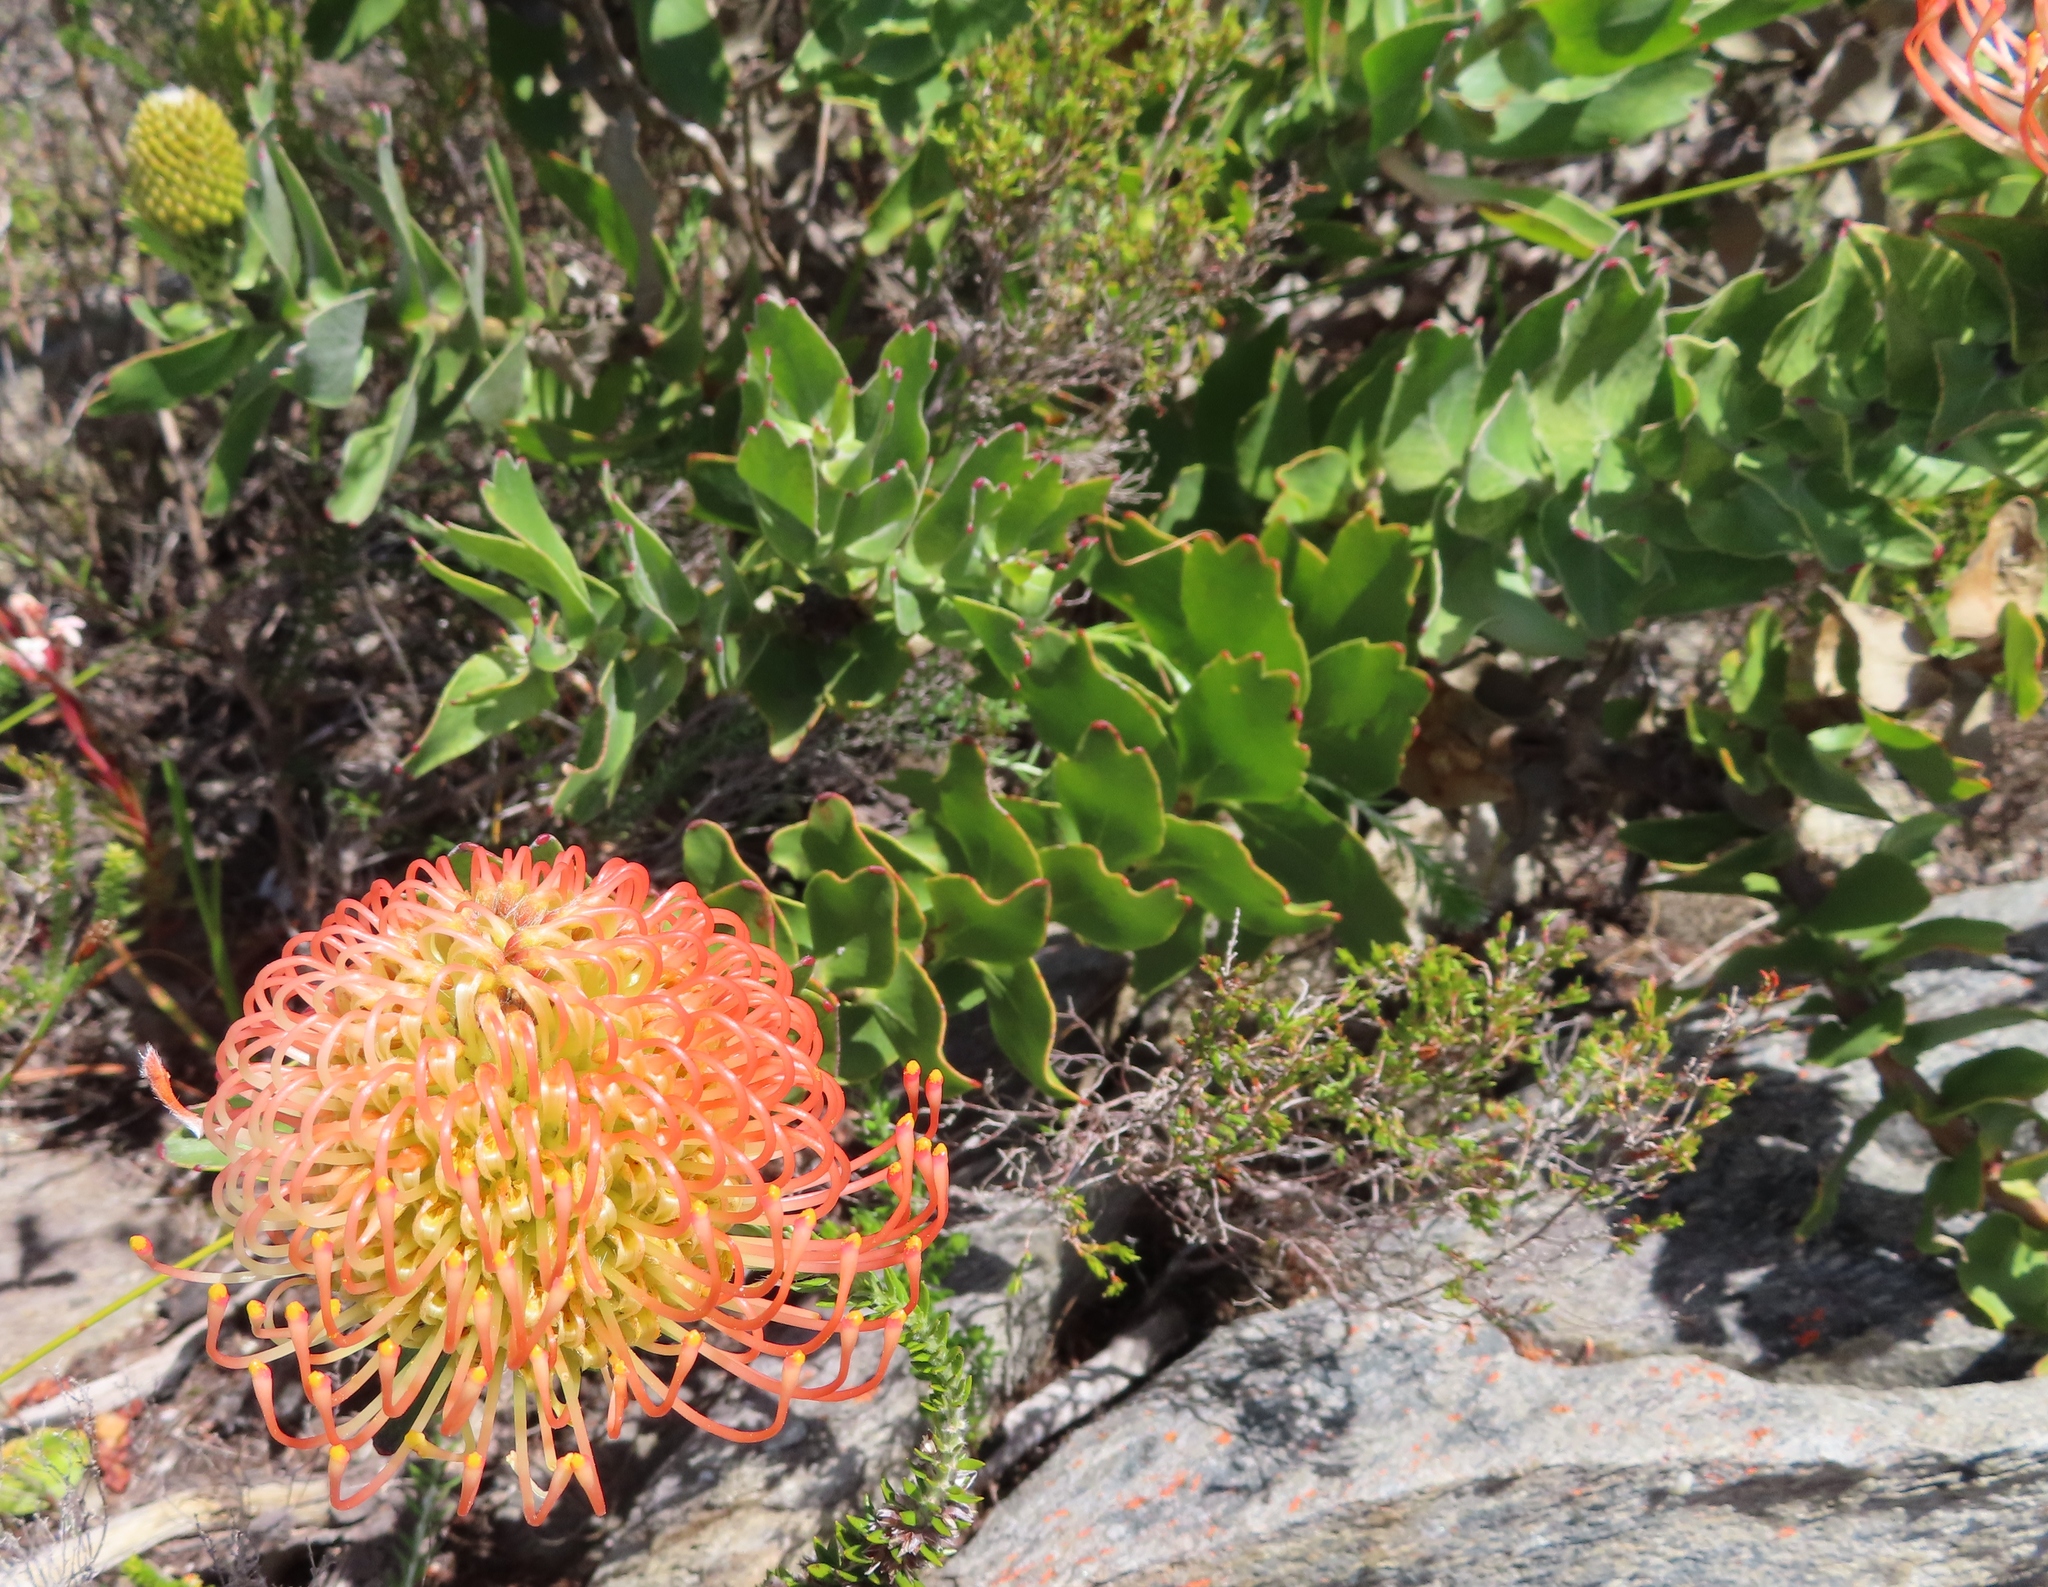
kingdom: Plantae
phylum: Tracheophyta
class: Magnoliopsida
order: Proteales
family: Proteaceae
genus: Leucospermum
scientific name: Leucospermum patersonii
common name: False tree pincushion
